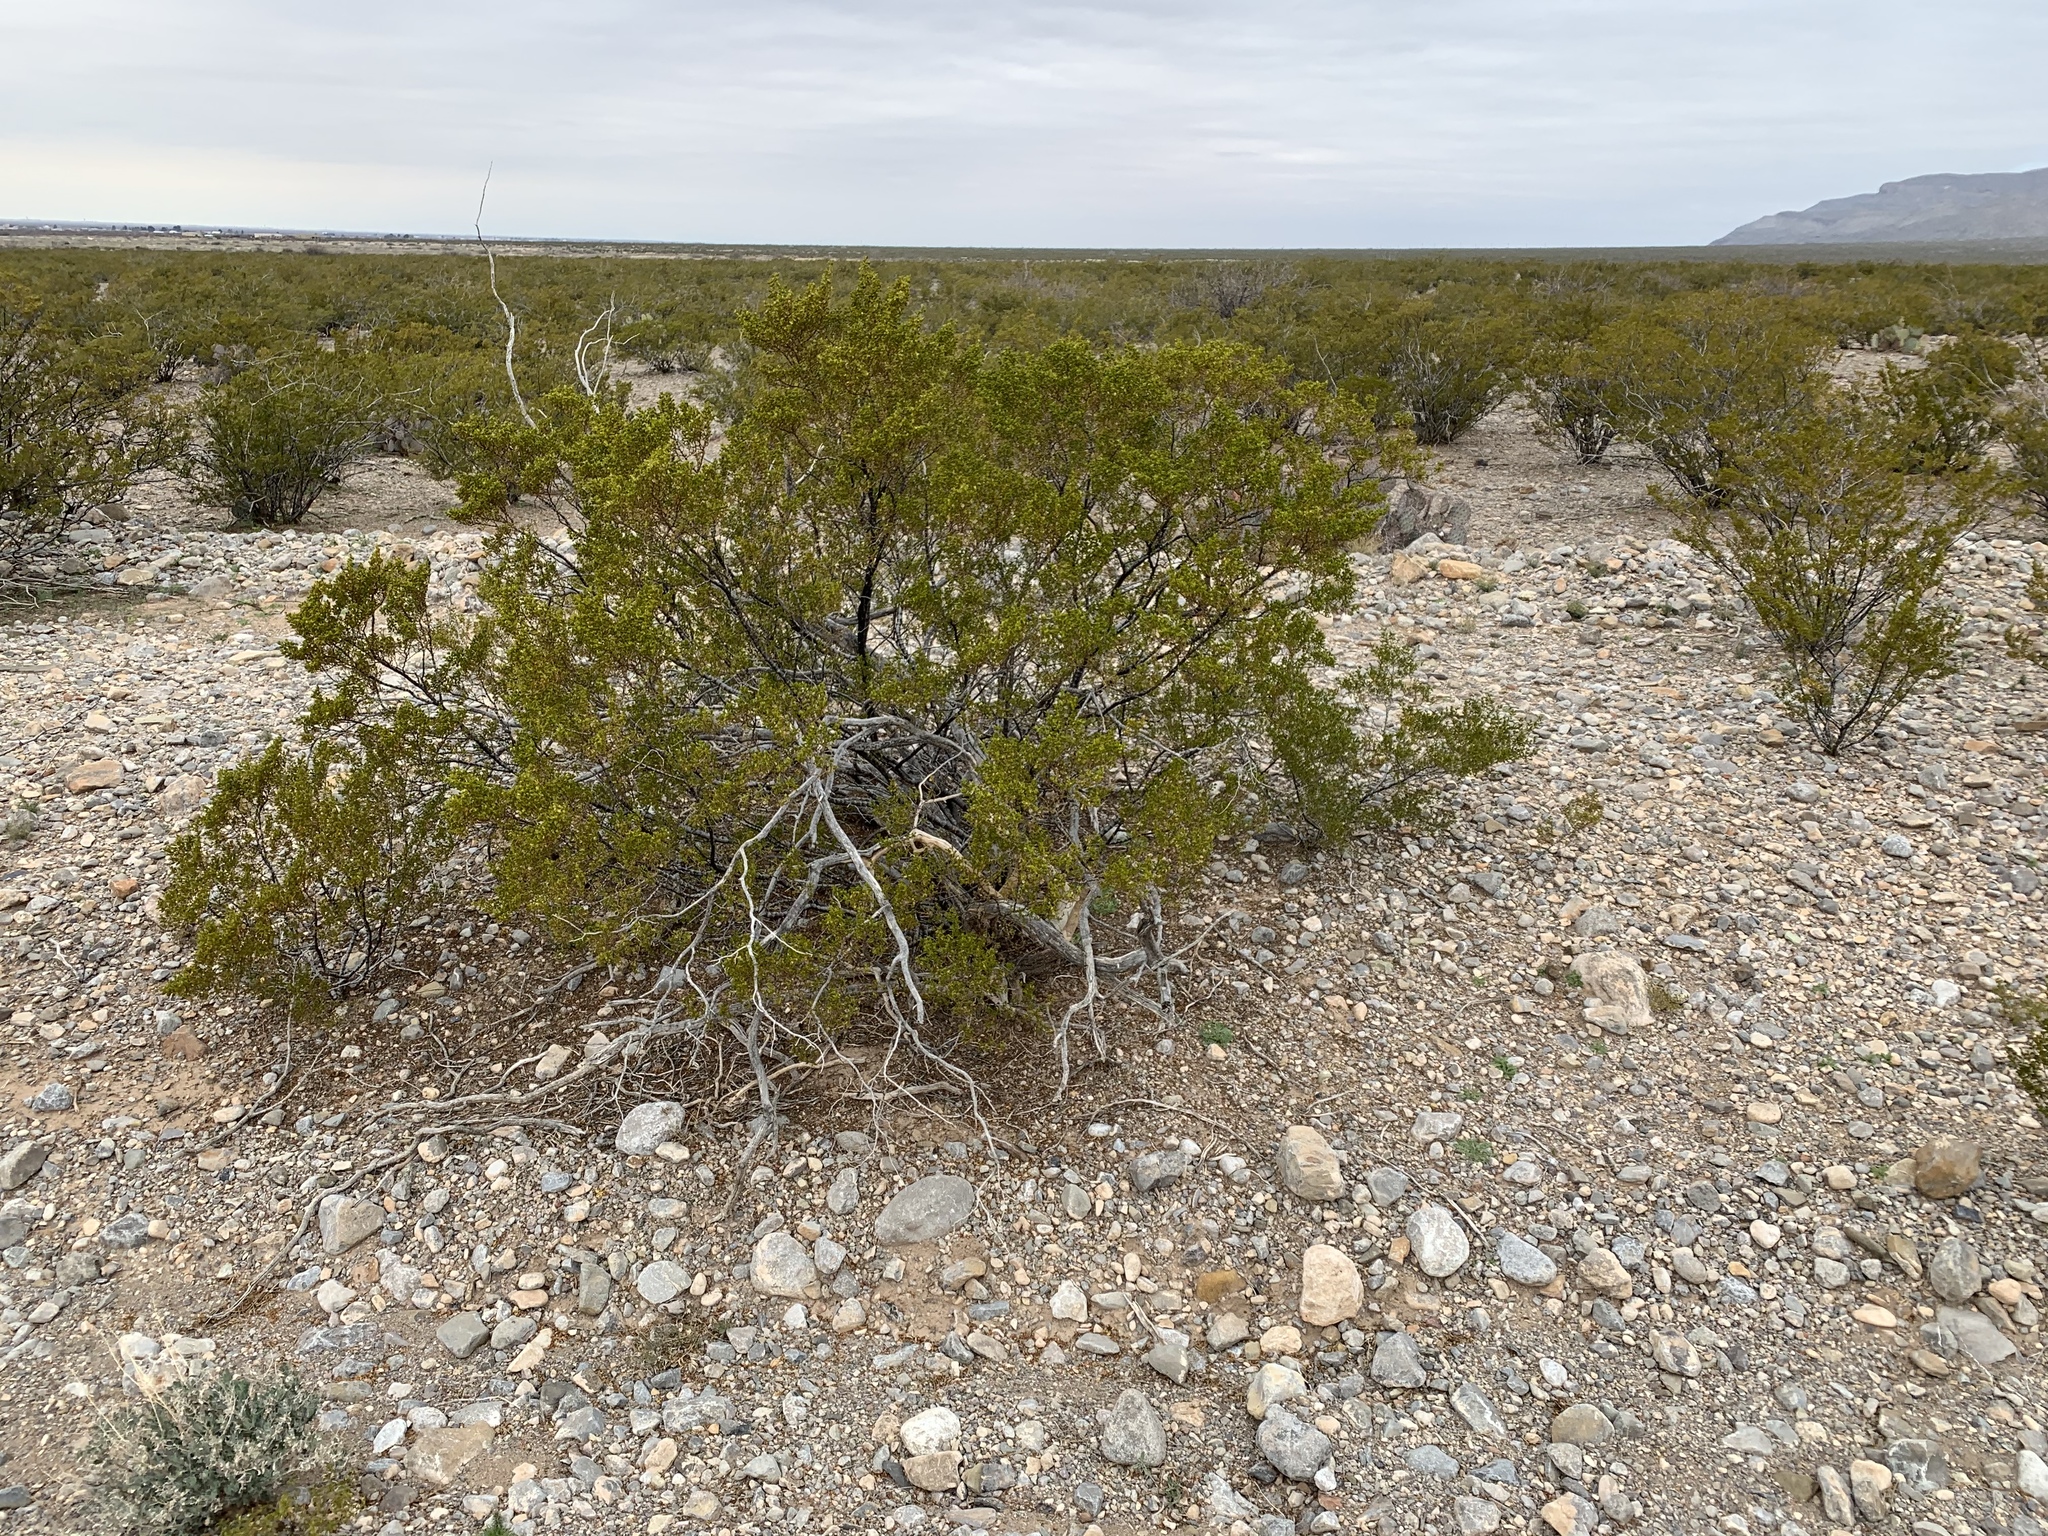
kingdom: Plantae
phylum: Tracheophyta
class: Magnoliopsida
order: Zygophyllales
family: Zygophyllaceae
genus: Larrea
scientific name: Larrea tridentata
